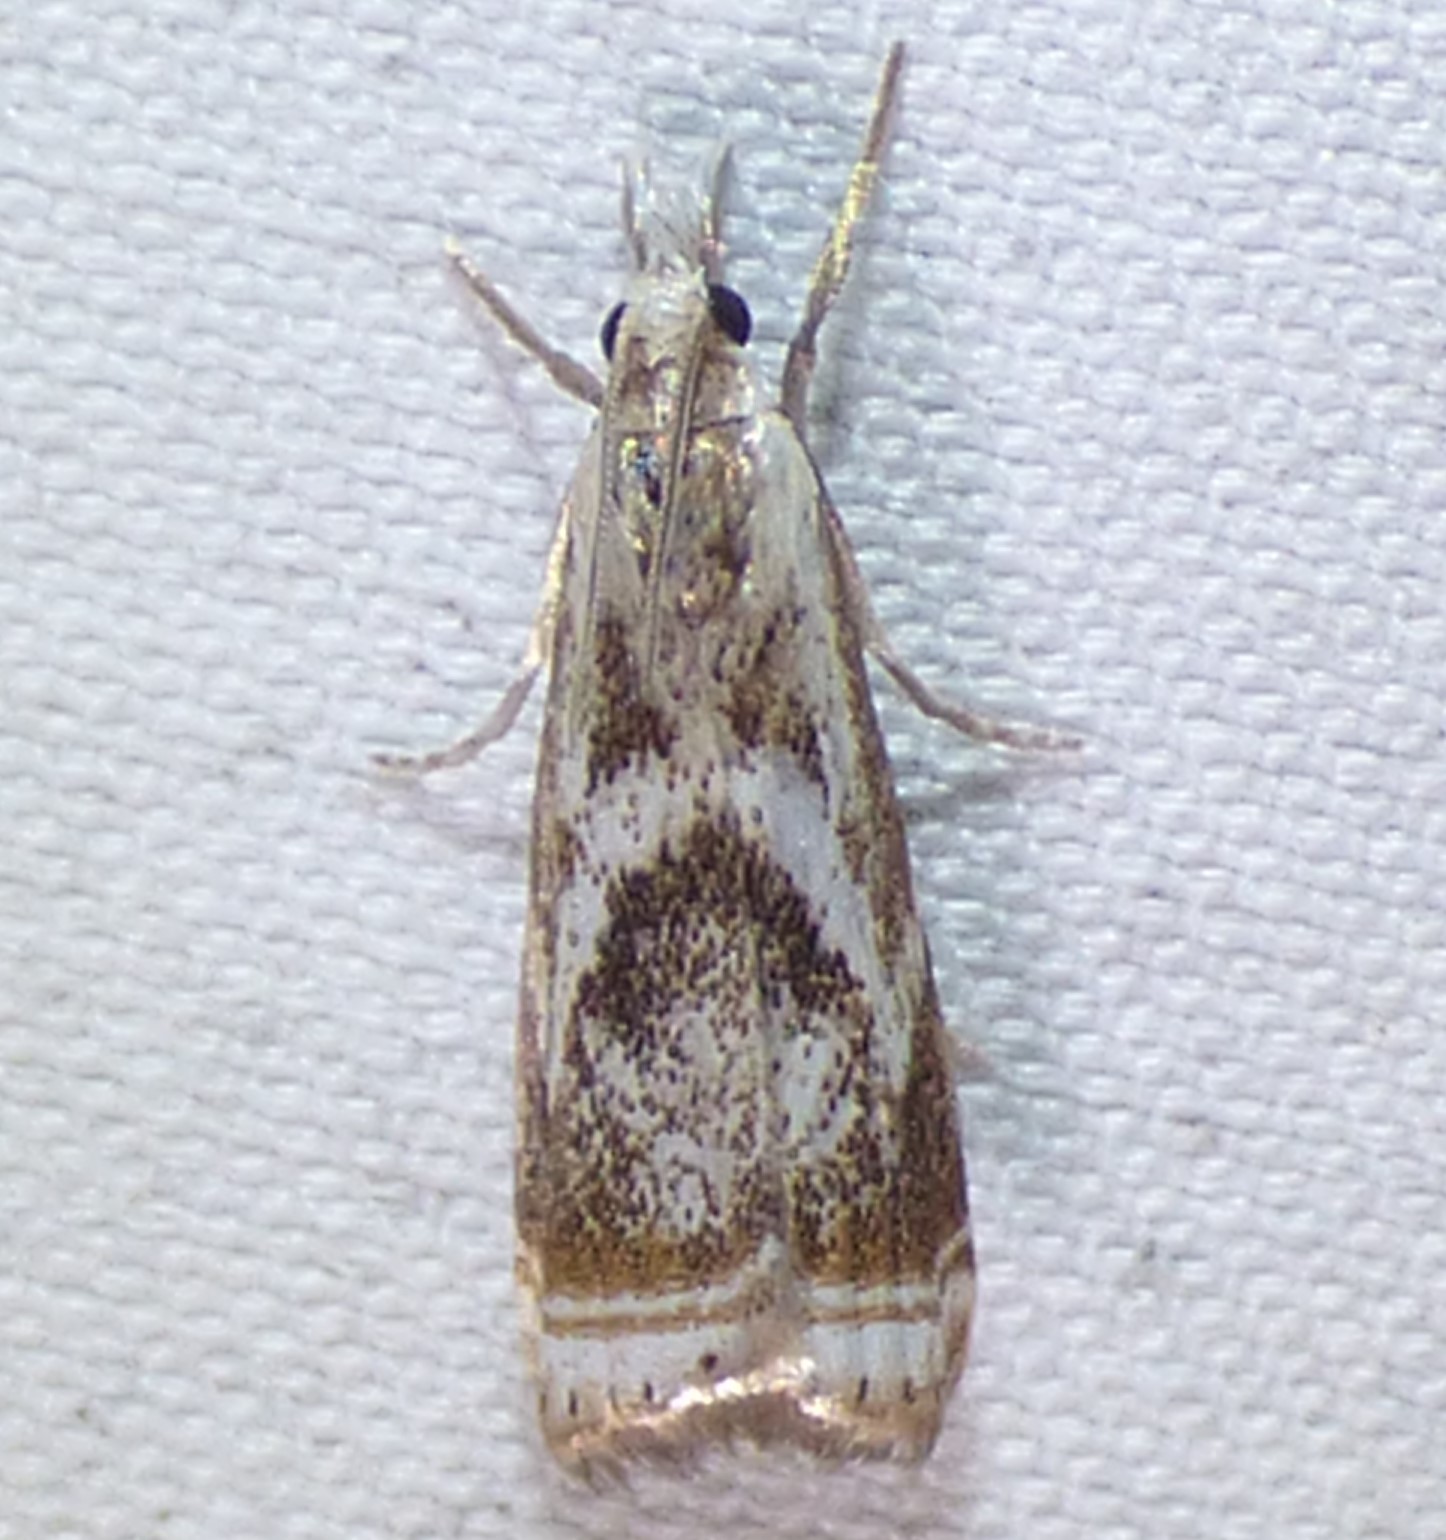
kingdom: Animalia
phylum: Arthropoda
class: Insecta
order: Lepidoptera
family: Crambidae
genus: Microcrambus
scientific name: Microcrambus elegans
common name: Elegant grass-veneer
